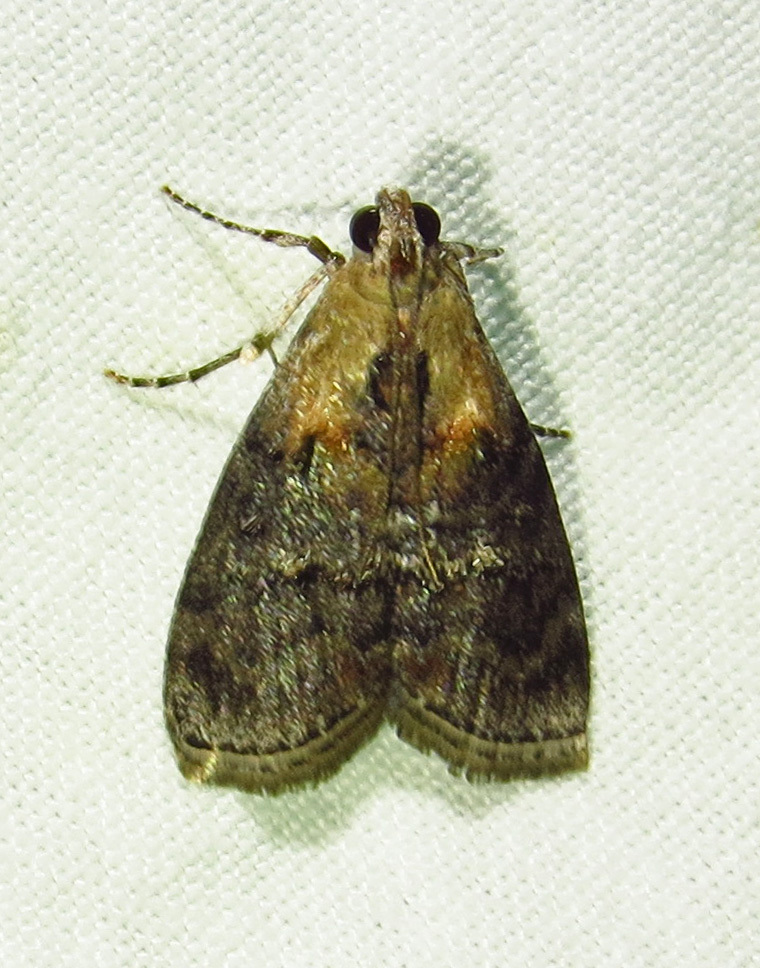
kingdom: Animalia
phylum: Arthropoda
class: Insecta
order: Lepidoptera
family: Pyralidae
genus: Pococera
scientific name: Pococera expandens
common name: Striped oak webworm moth
